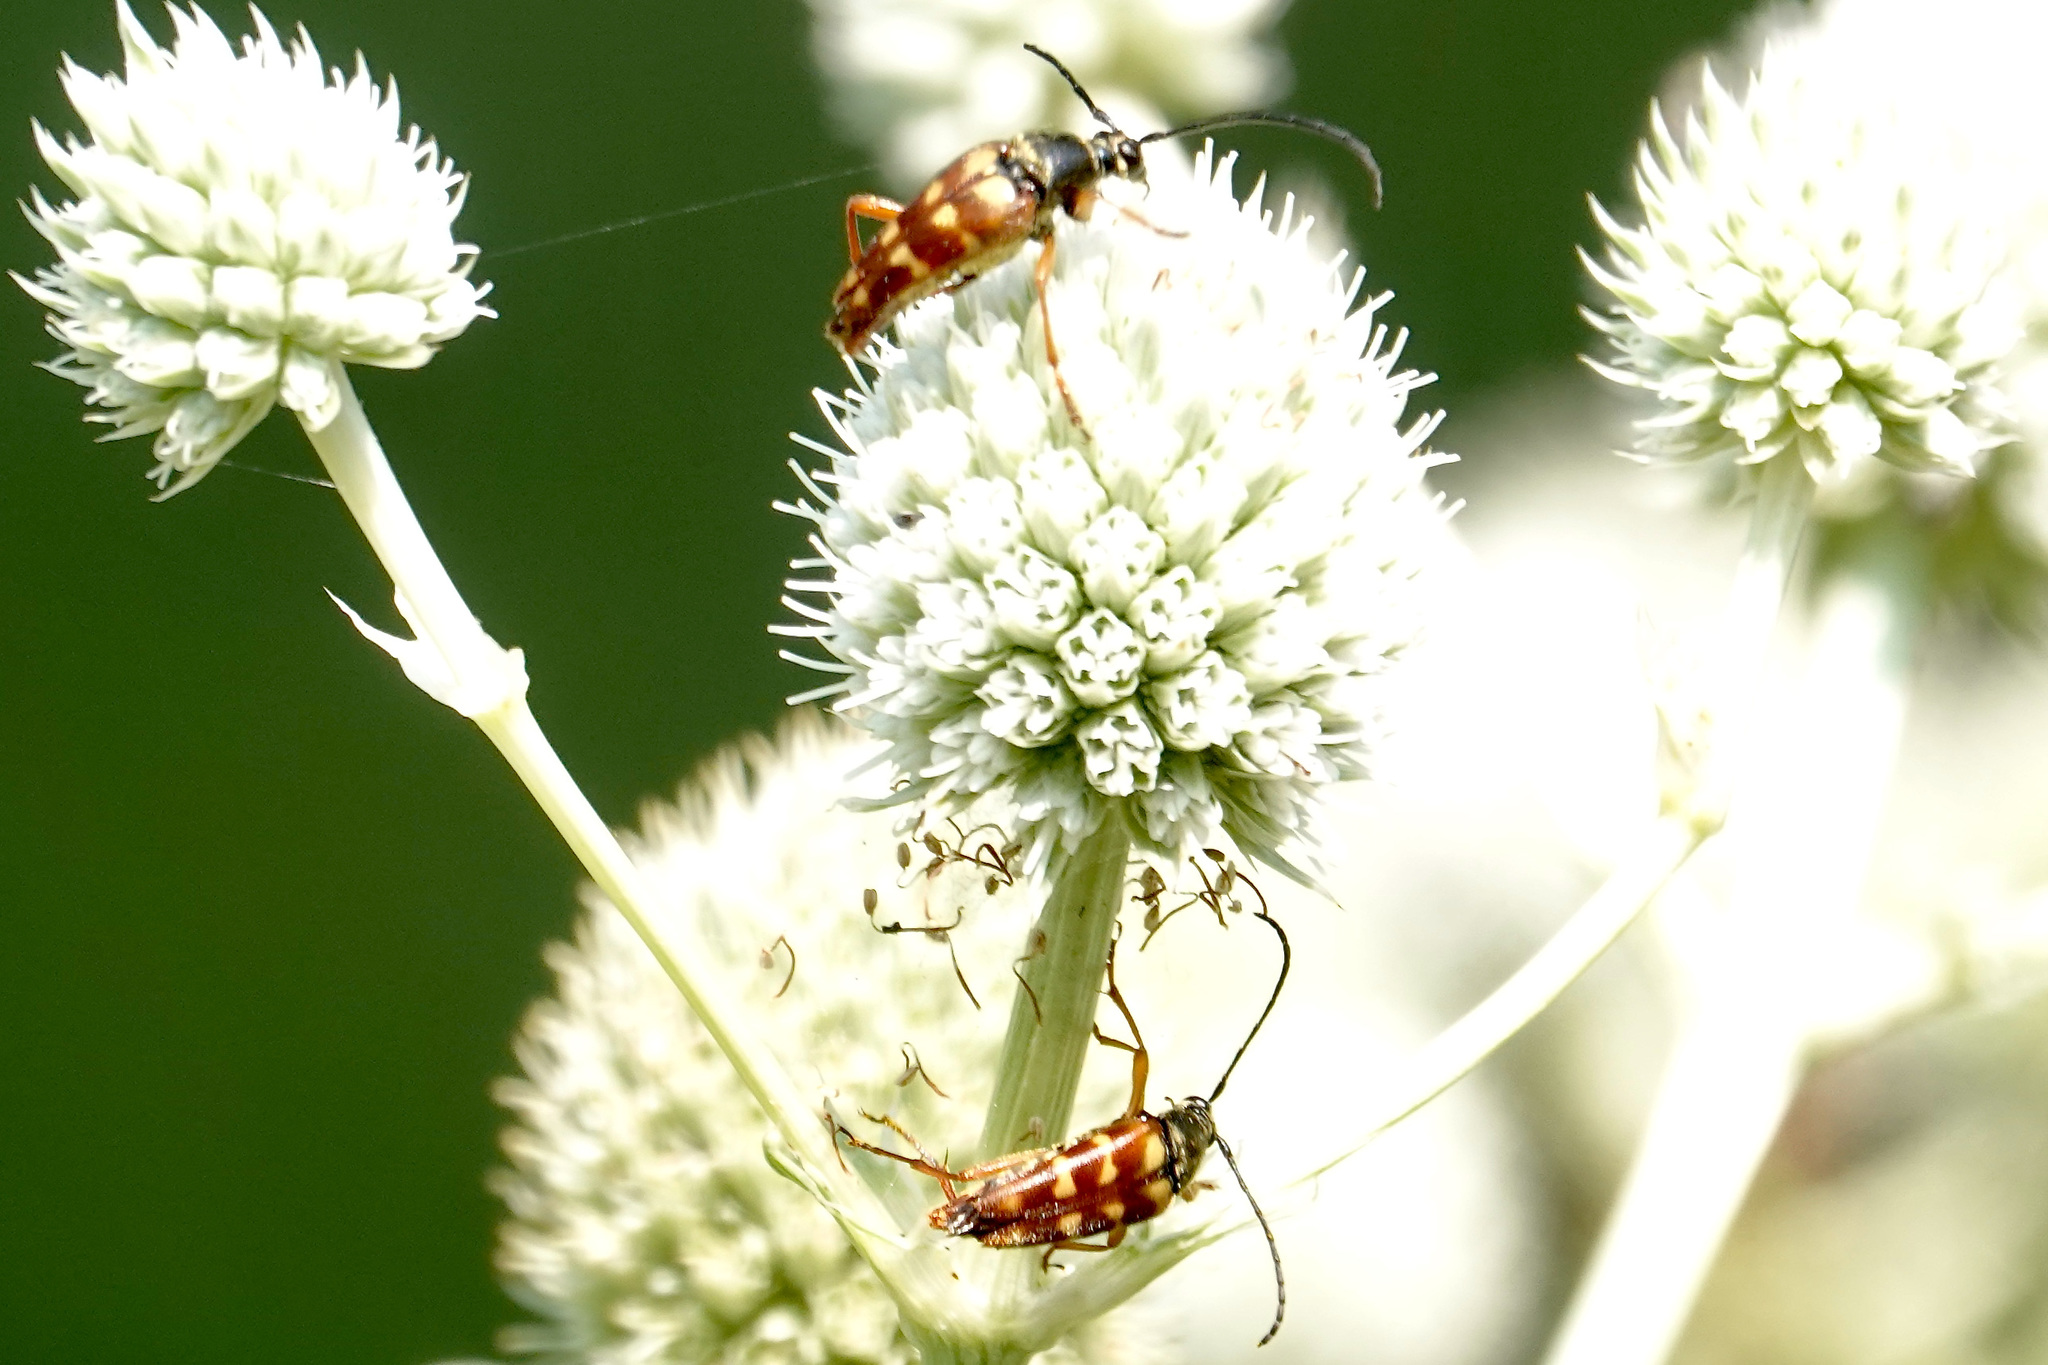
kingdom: Animalia
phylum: Arthropoda
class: Insecta
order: Coleoptera
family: Cerambycidae
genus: Typocerus
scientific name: Typocerus velutinus
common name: Banded longhorn beetle
